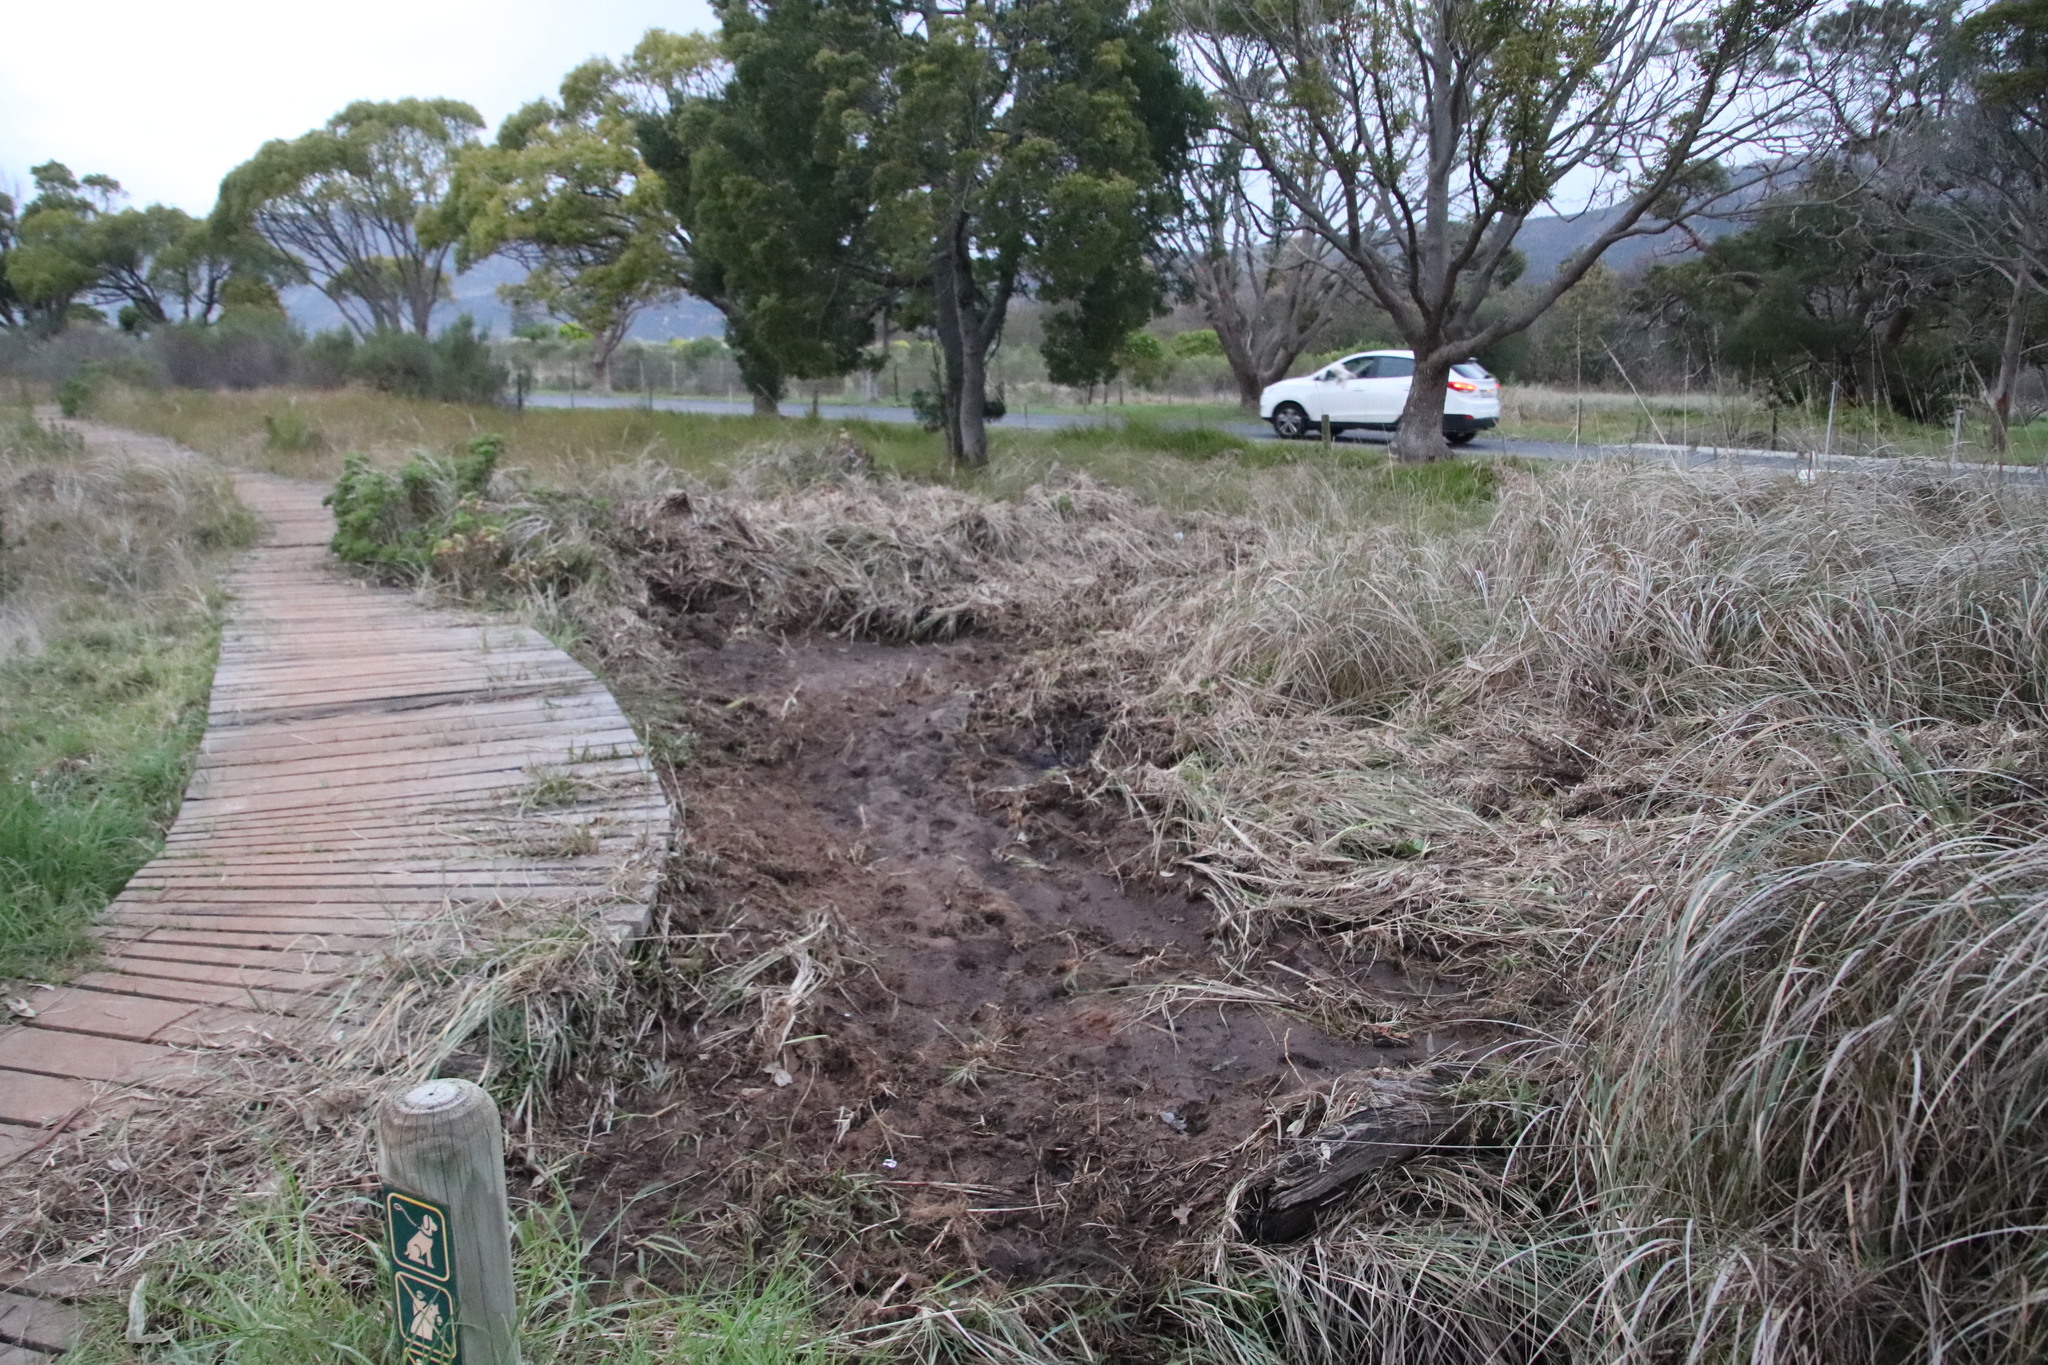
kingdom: Plantae
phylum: Tracheophyta
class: Magnoliopsida
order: Ericales
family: Ericaceae
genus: Erica
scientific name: Erica verticillata
